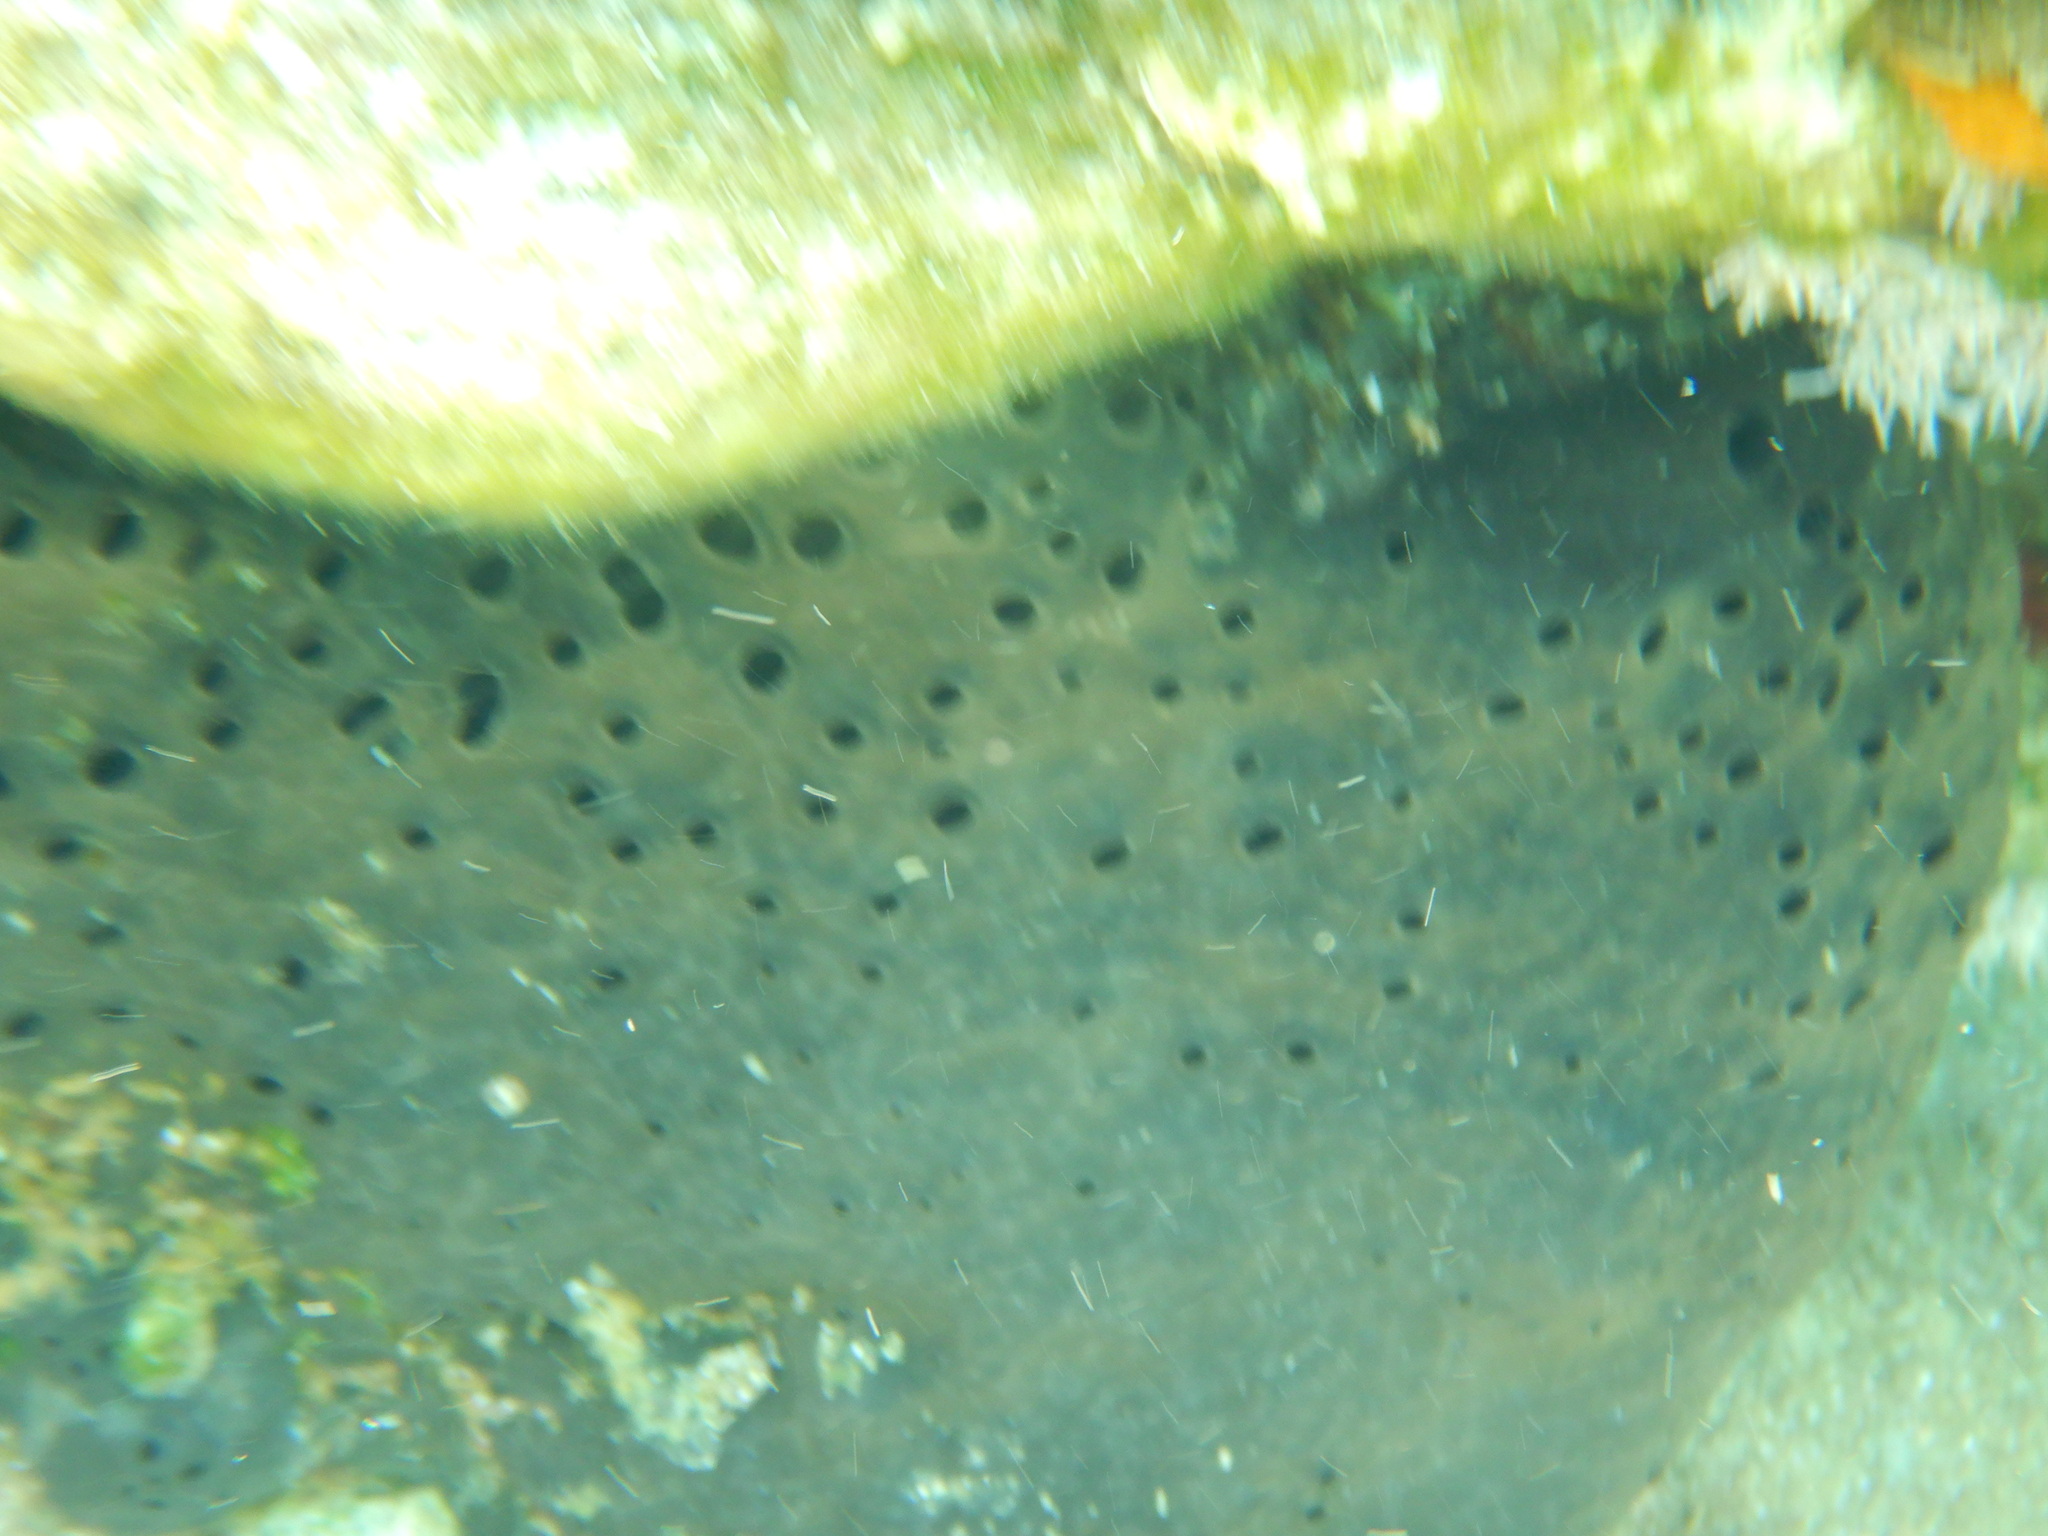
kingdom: Animalia
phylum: Porifera
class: Demospongiae
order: Dictyoceratida
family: Irciniidae
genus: Sarcotragus
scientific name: Sarcotragus spinosulus
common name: Black leather sponge
